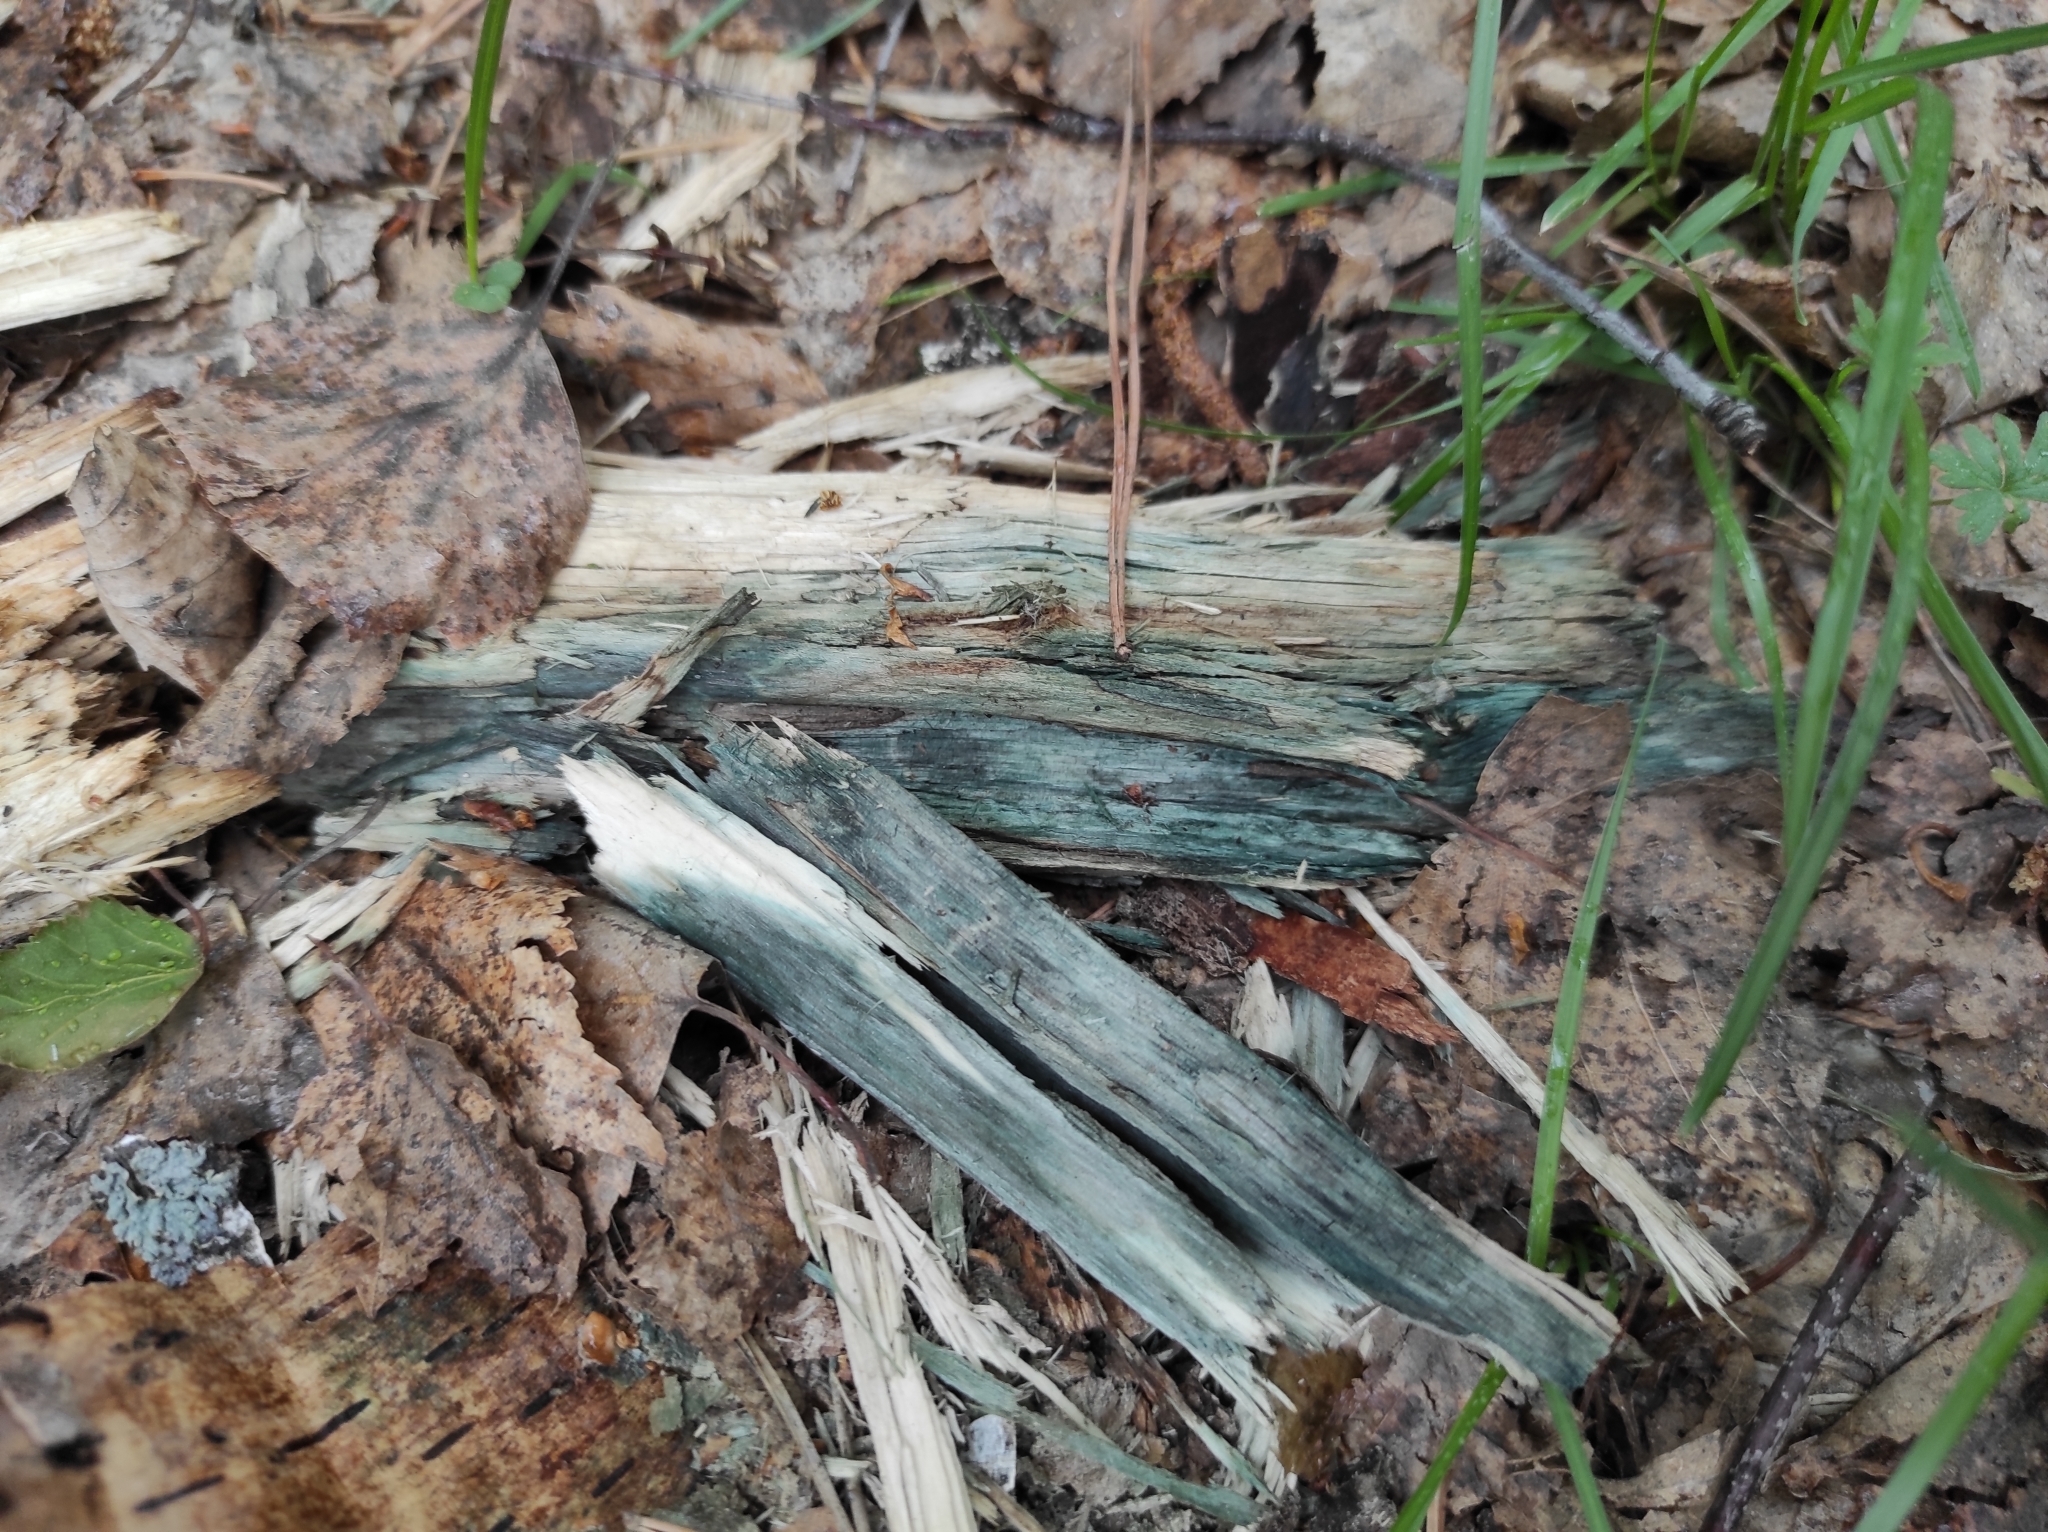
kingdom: Fungi
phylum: Ascomycota
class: Leotiomycetes
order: Helotiales
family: Chlorociboriaceae
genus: Chlorociboria
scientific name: Chlorociboria
